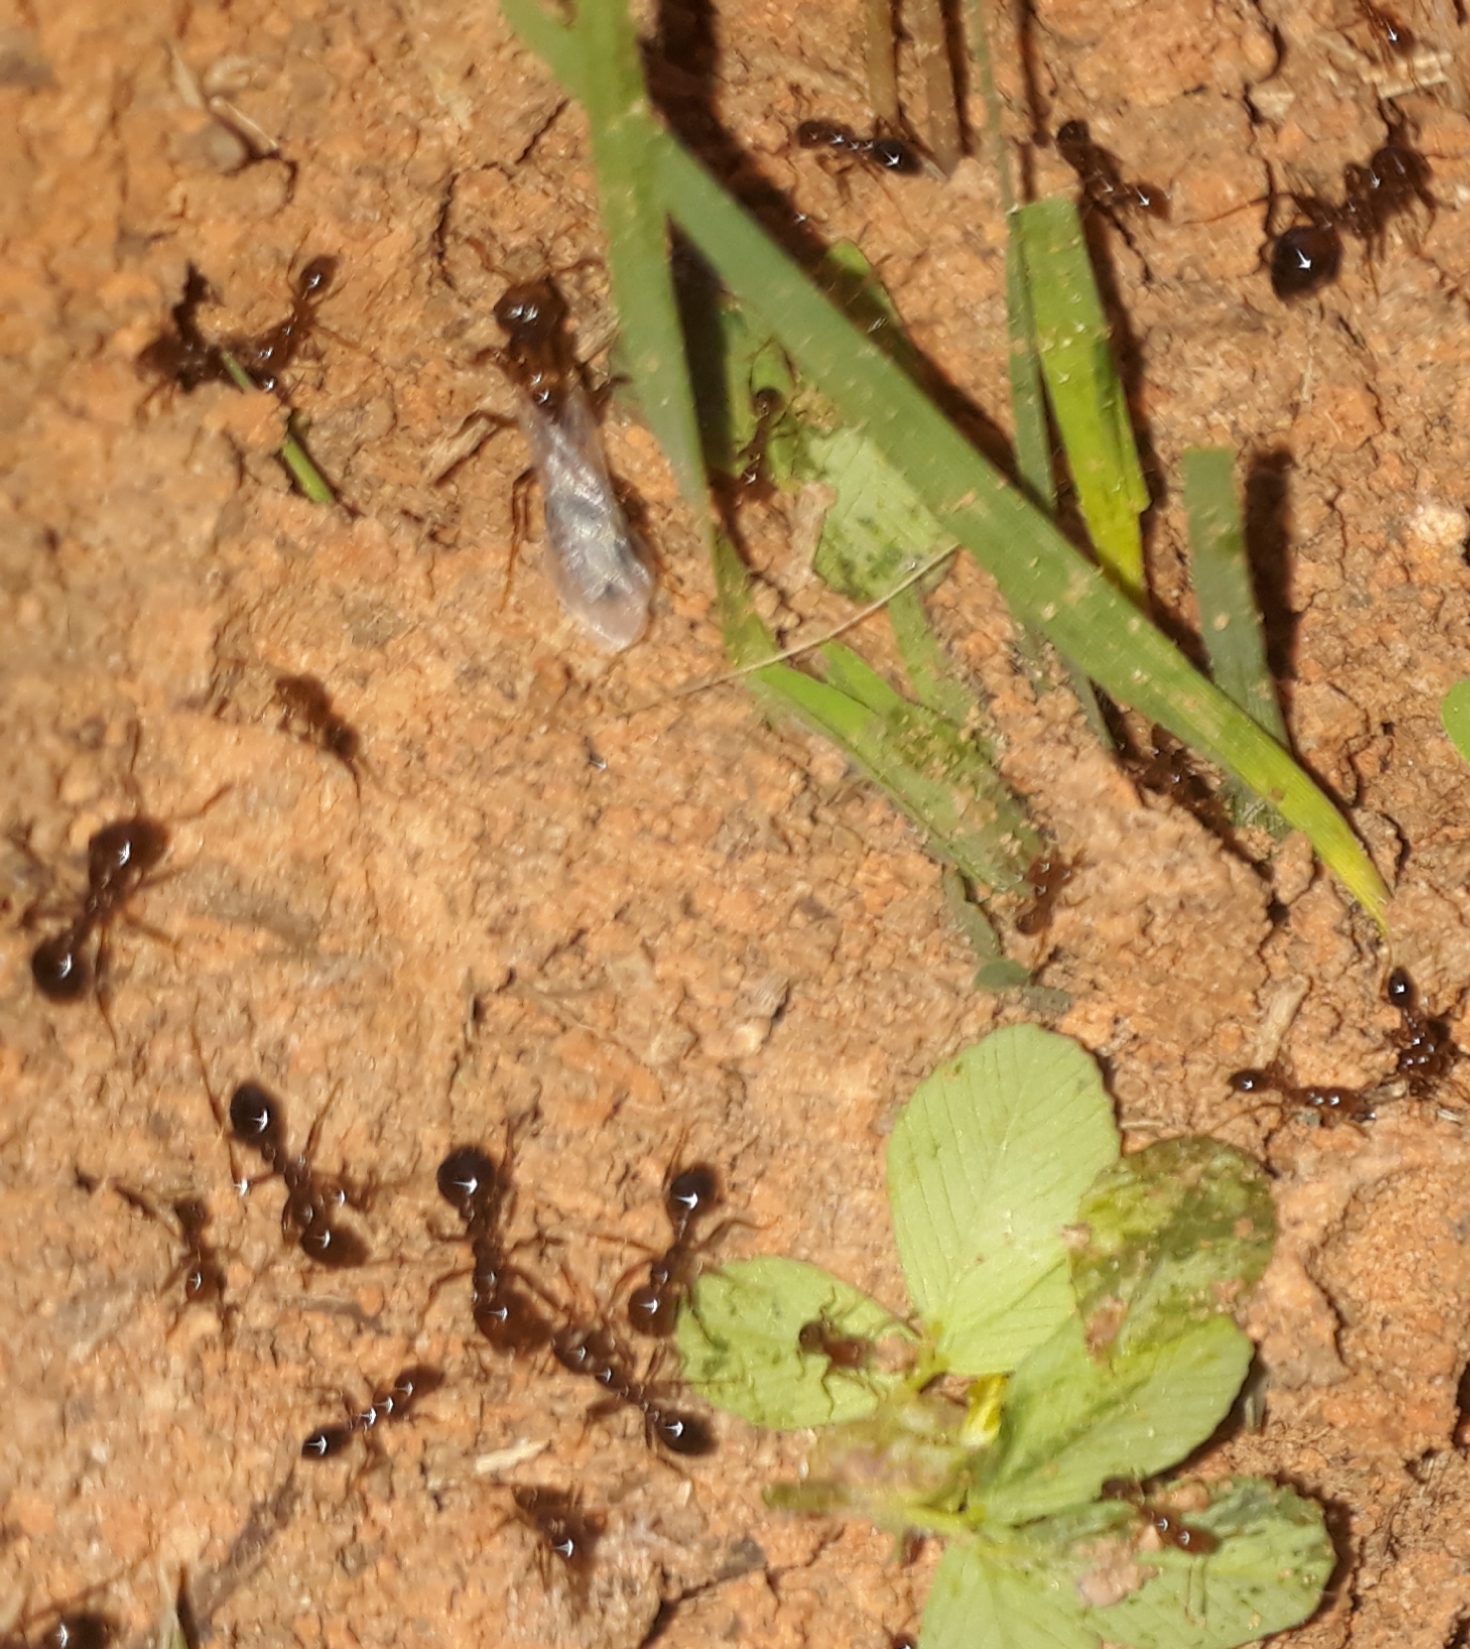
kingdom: Animalia
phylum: Arthropoda
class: Insecta
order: Hymenoptera
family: Formicidae
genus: Solenopsis
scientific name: Solenopsis invicta
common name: Red imported fire ant
